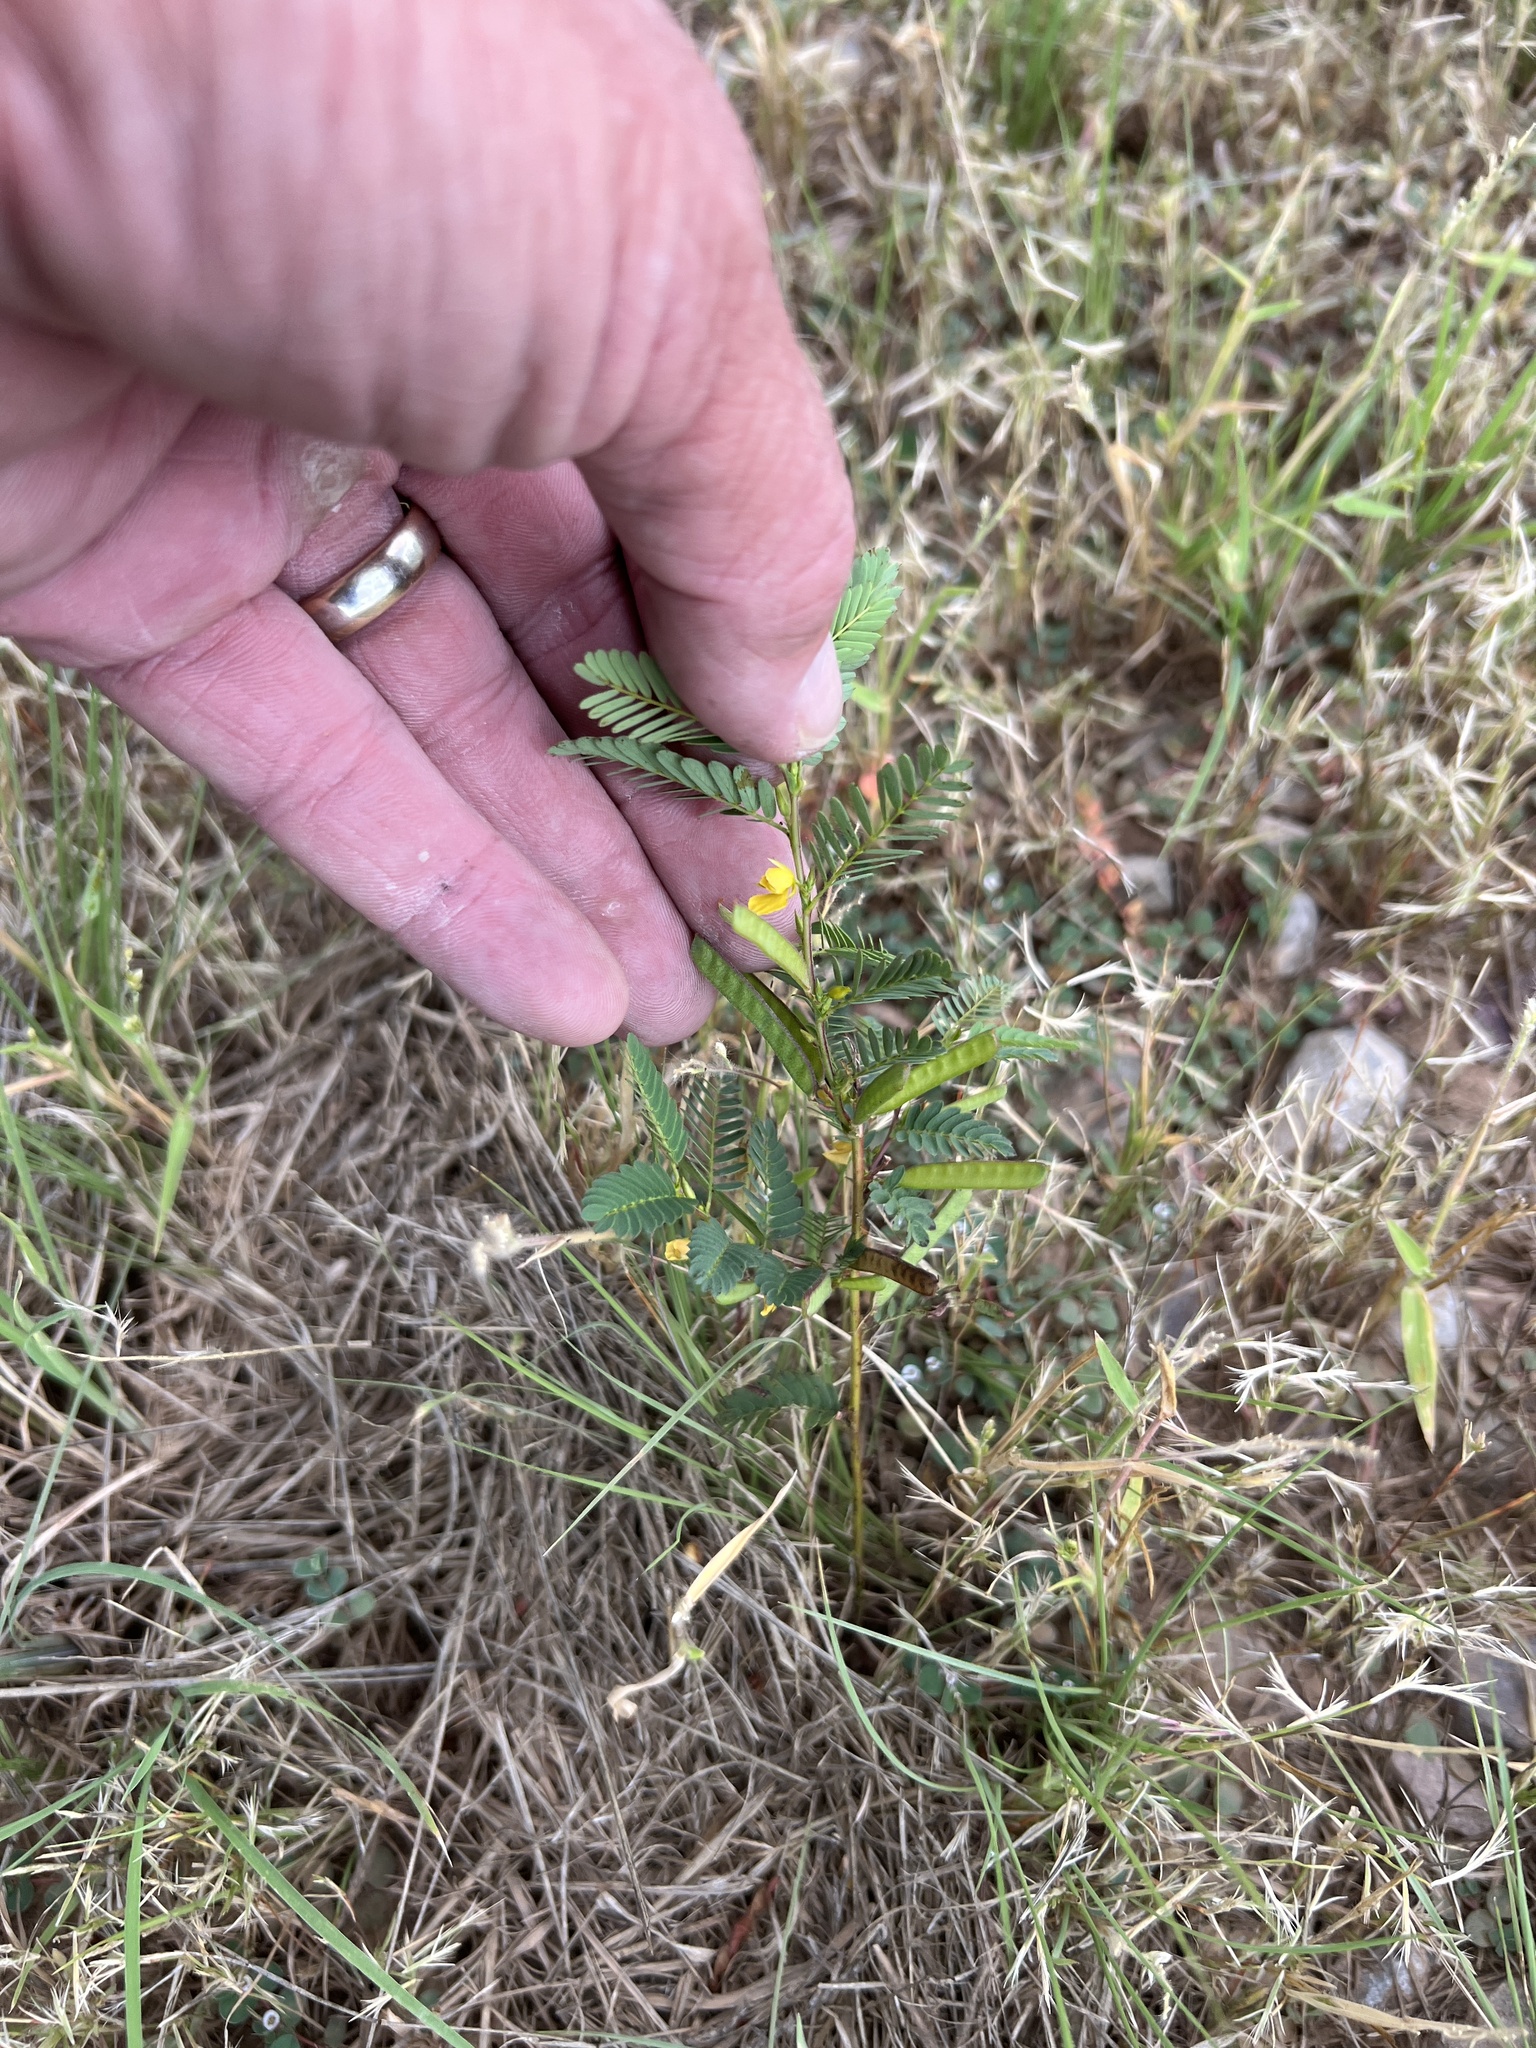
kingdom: Plantae
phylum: Tracheophyta
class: Magnoliopsida
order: Fabales
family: Fabaceae
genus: Chamaecrista
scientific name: Chamaecrista nictitans
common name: Sensitive cassia
